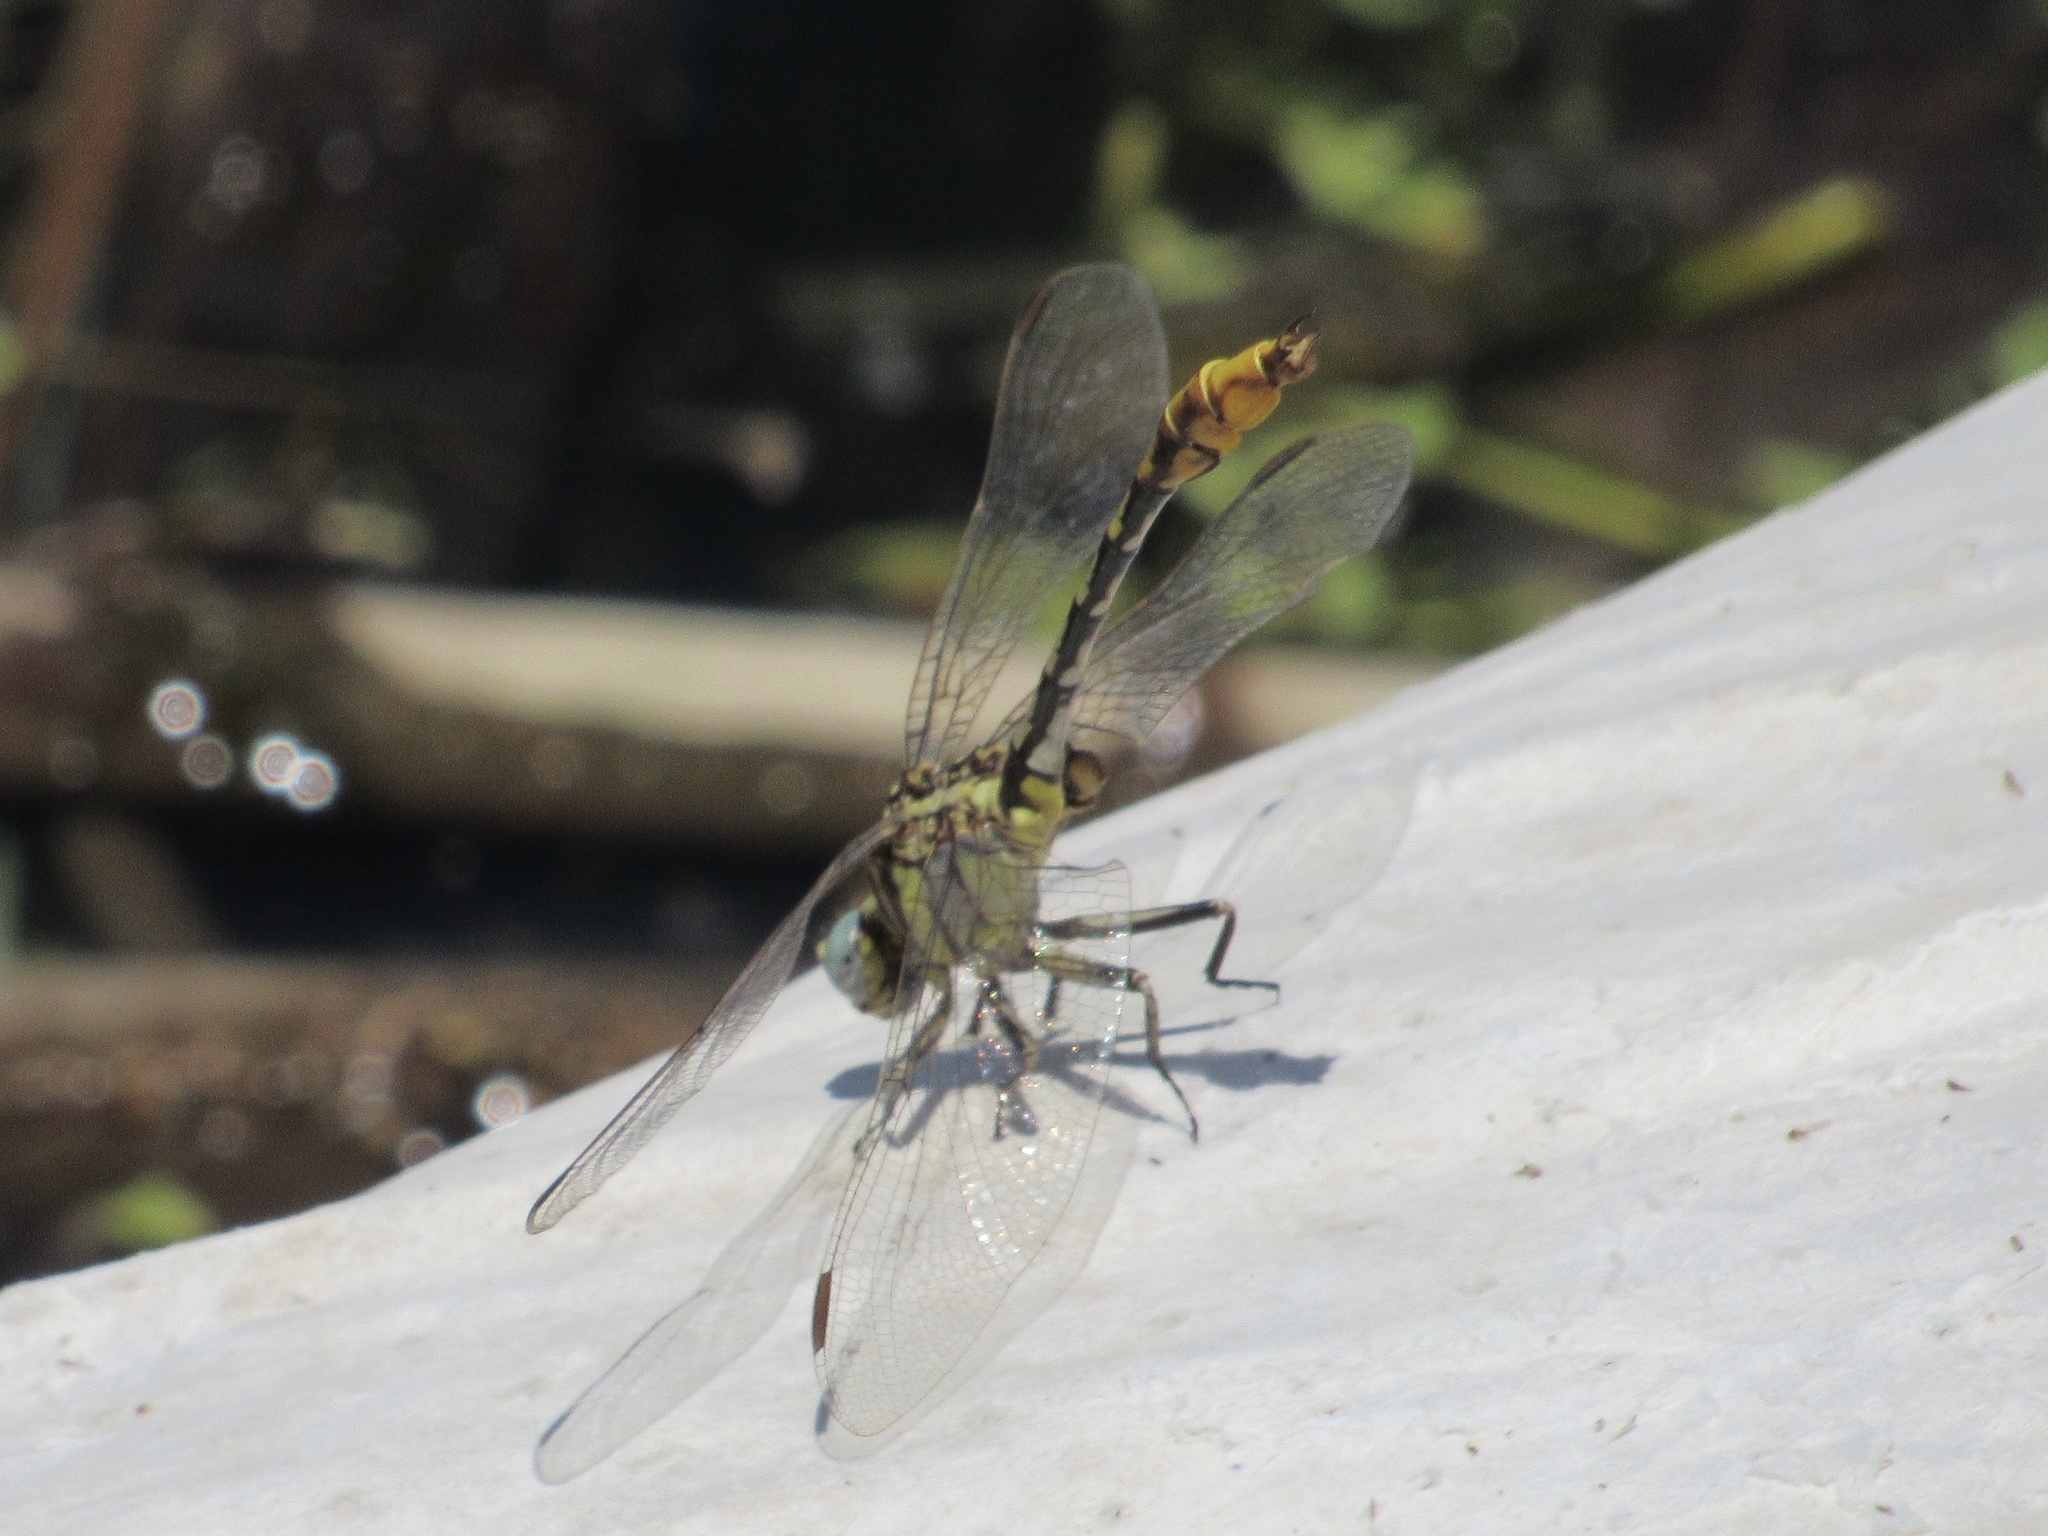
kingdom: Animalia
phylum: Arthropoda
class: Insecta
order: Odonata
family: Gomphidae
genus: Phanogomphus
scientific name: Phanogomphus militaris
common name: Sulphur-tipped clubtail
